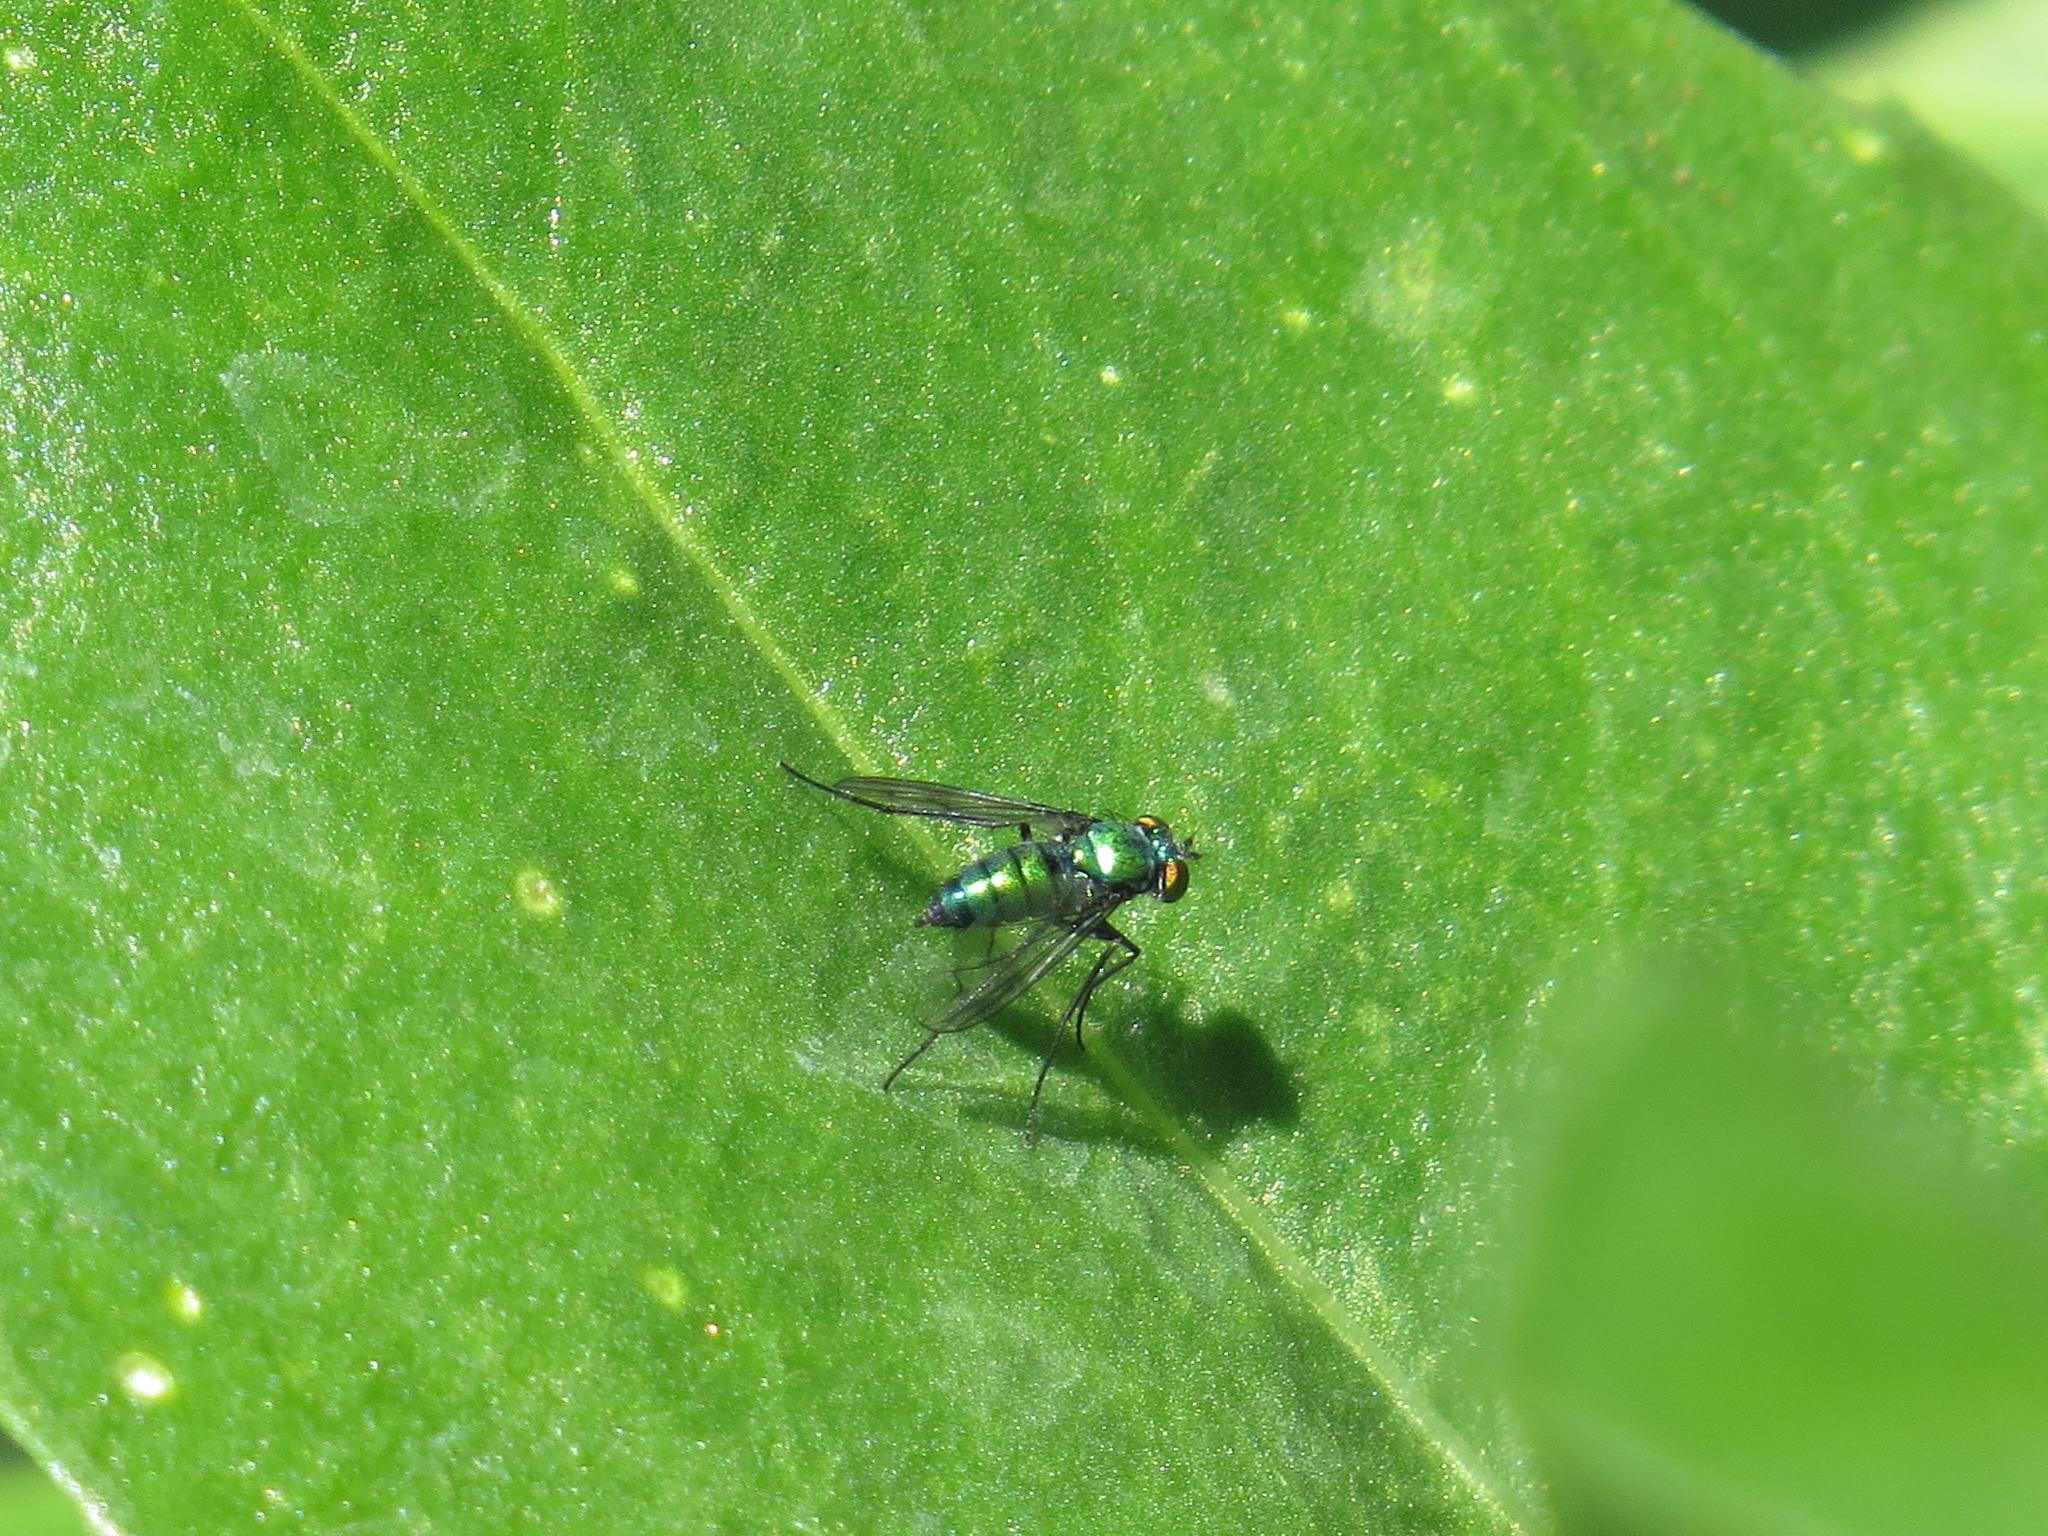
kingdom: Animalia
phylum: Arthropoda
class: Insecta
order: Diptera
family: Dolichopodidae
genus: Condylostylus
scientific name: Condylostylus occidentalis
